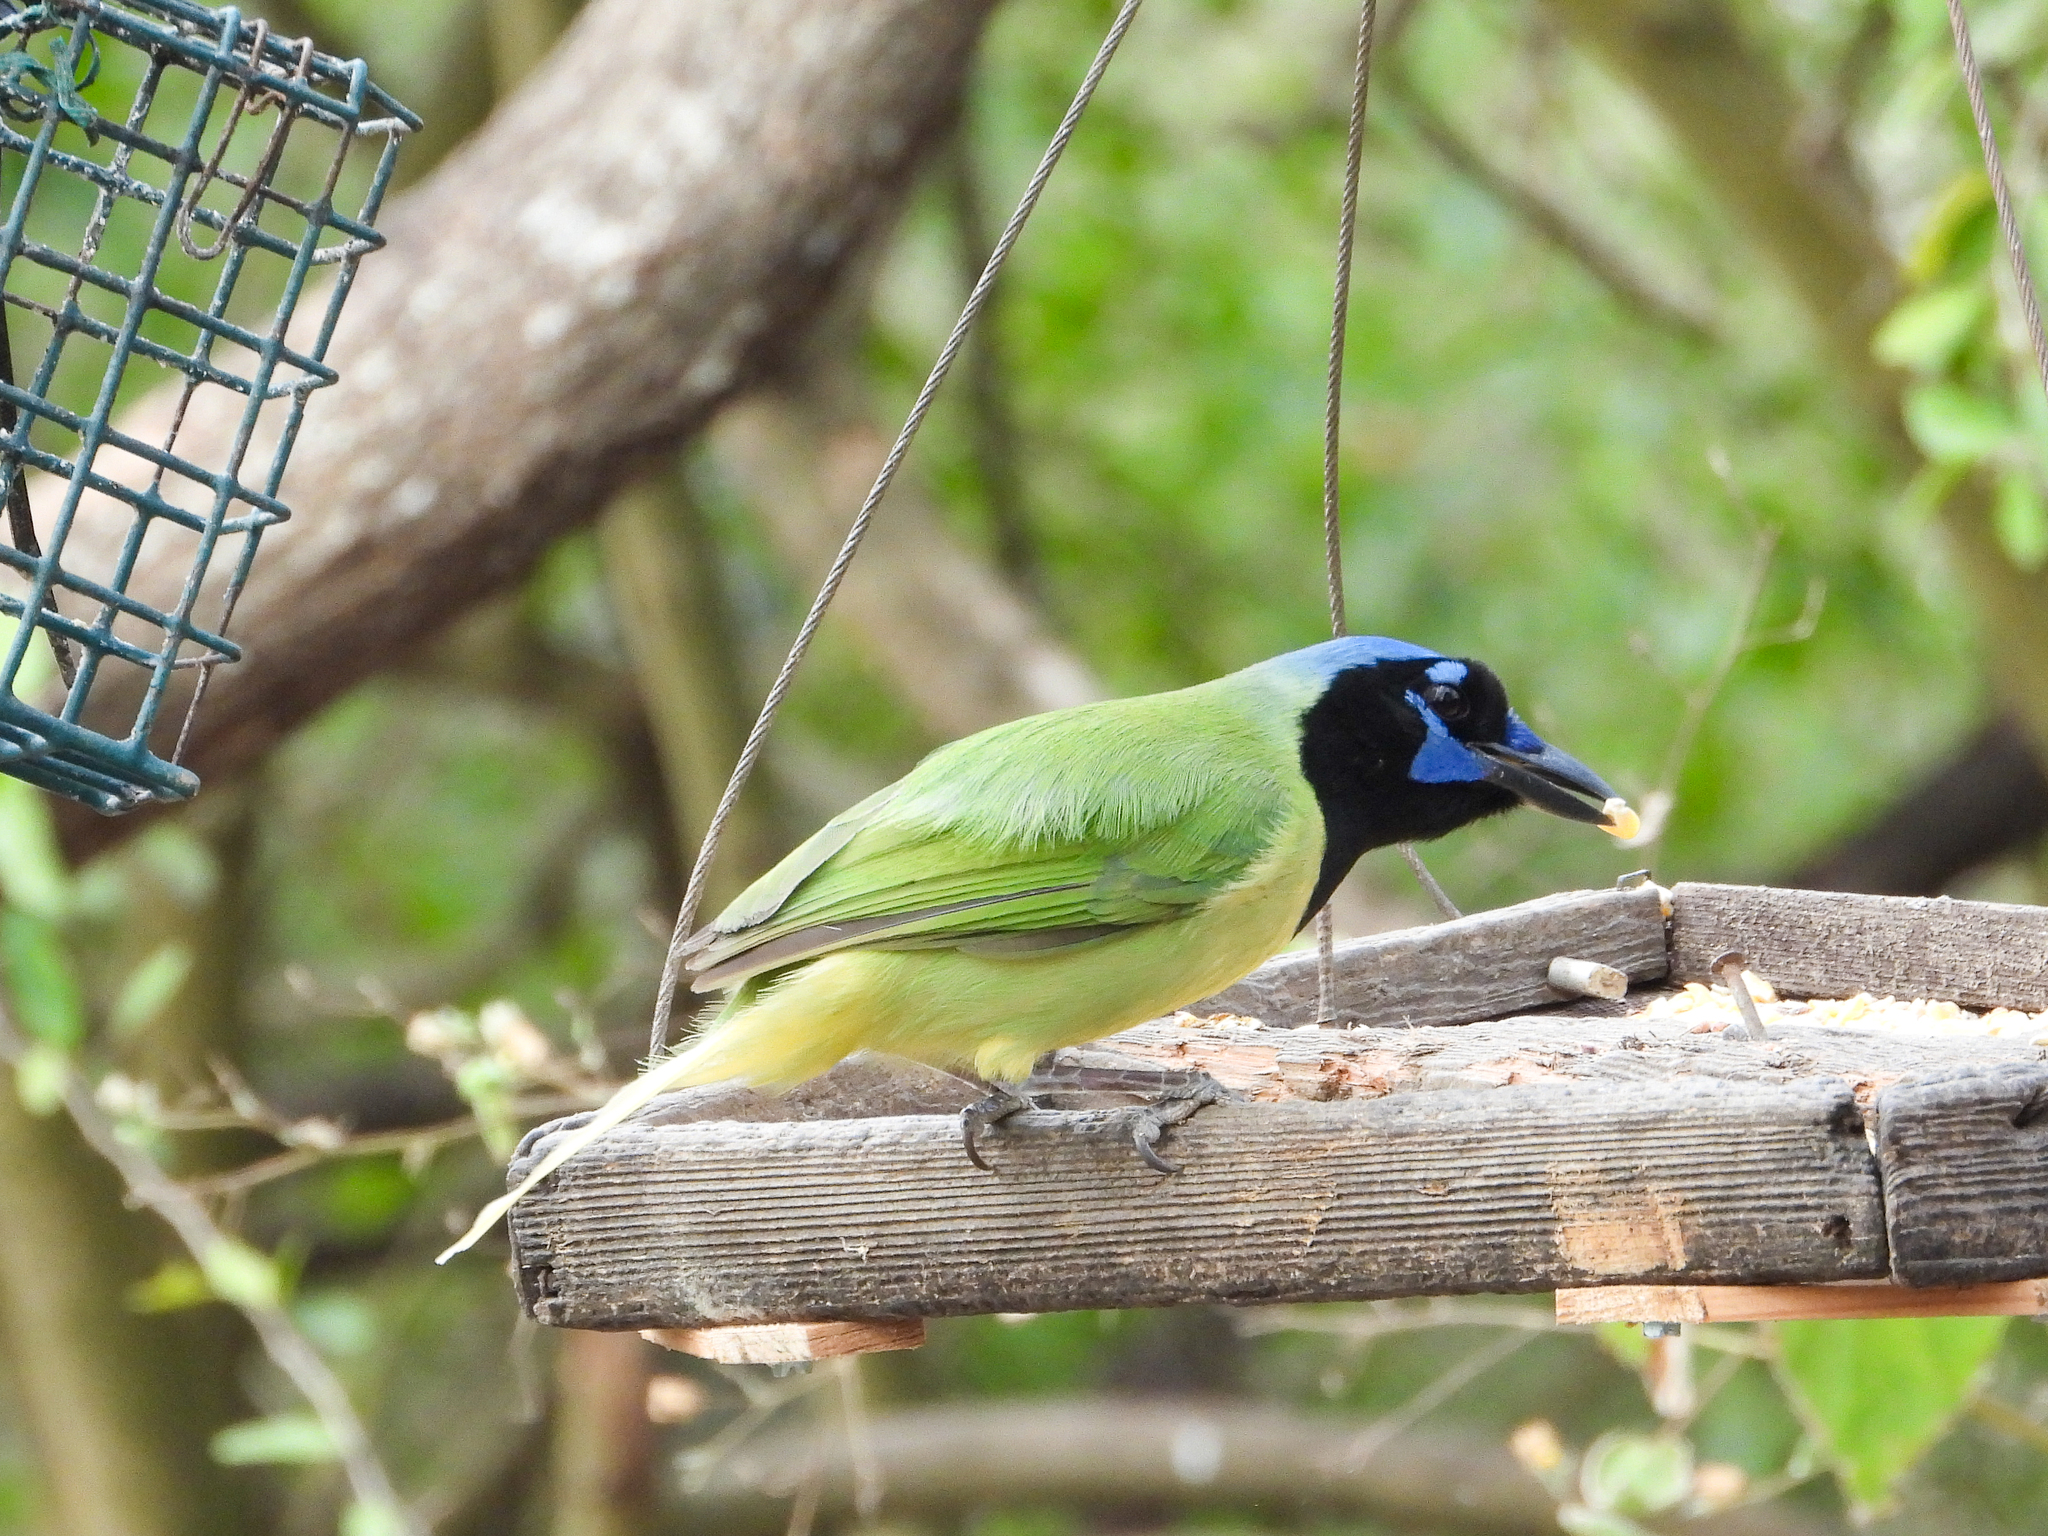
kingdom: Animalia
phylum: Chordata
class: Aves
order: Passeriformes
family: Corvidae
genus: Cyanocorax
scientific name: Cyanocorax yncas
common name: Green jay
